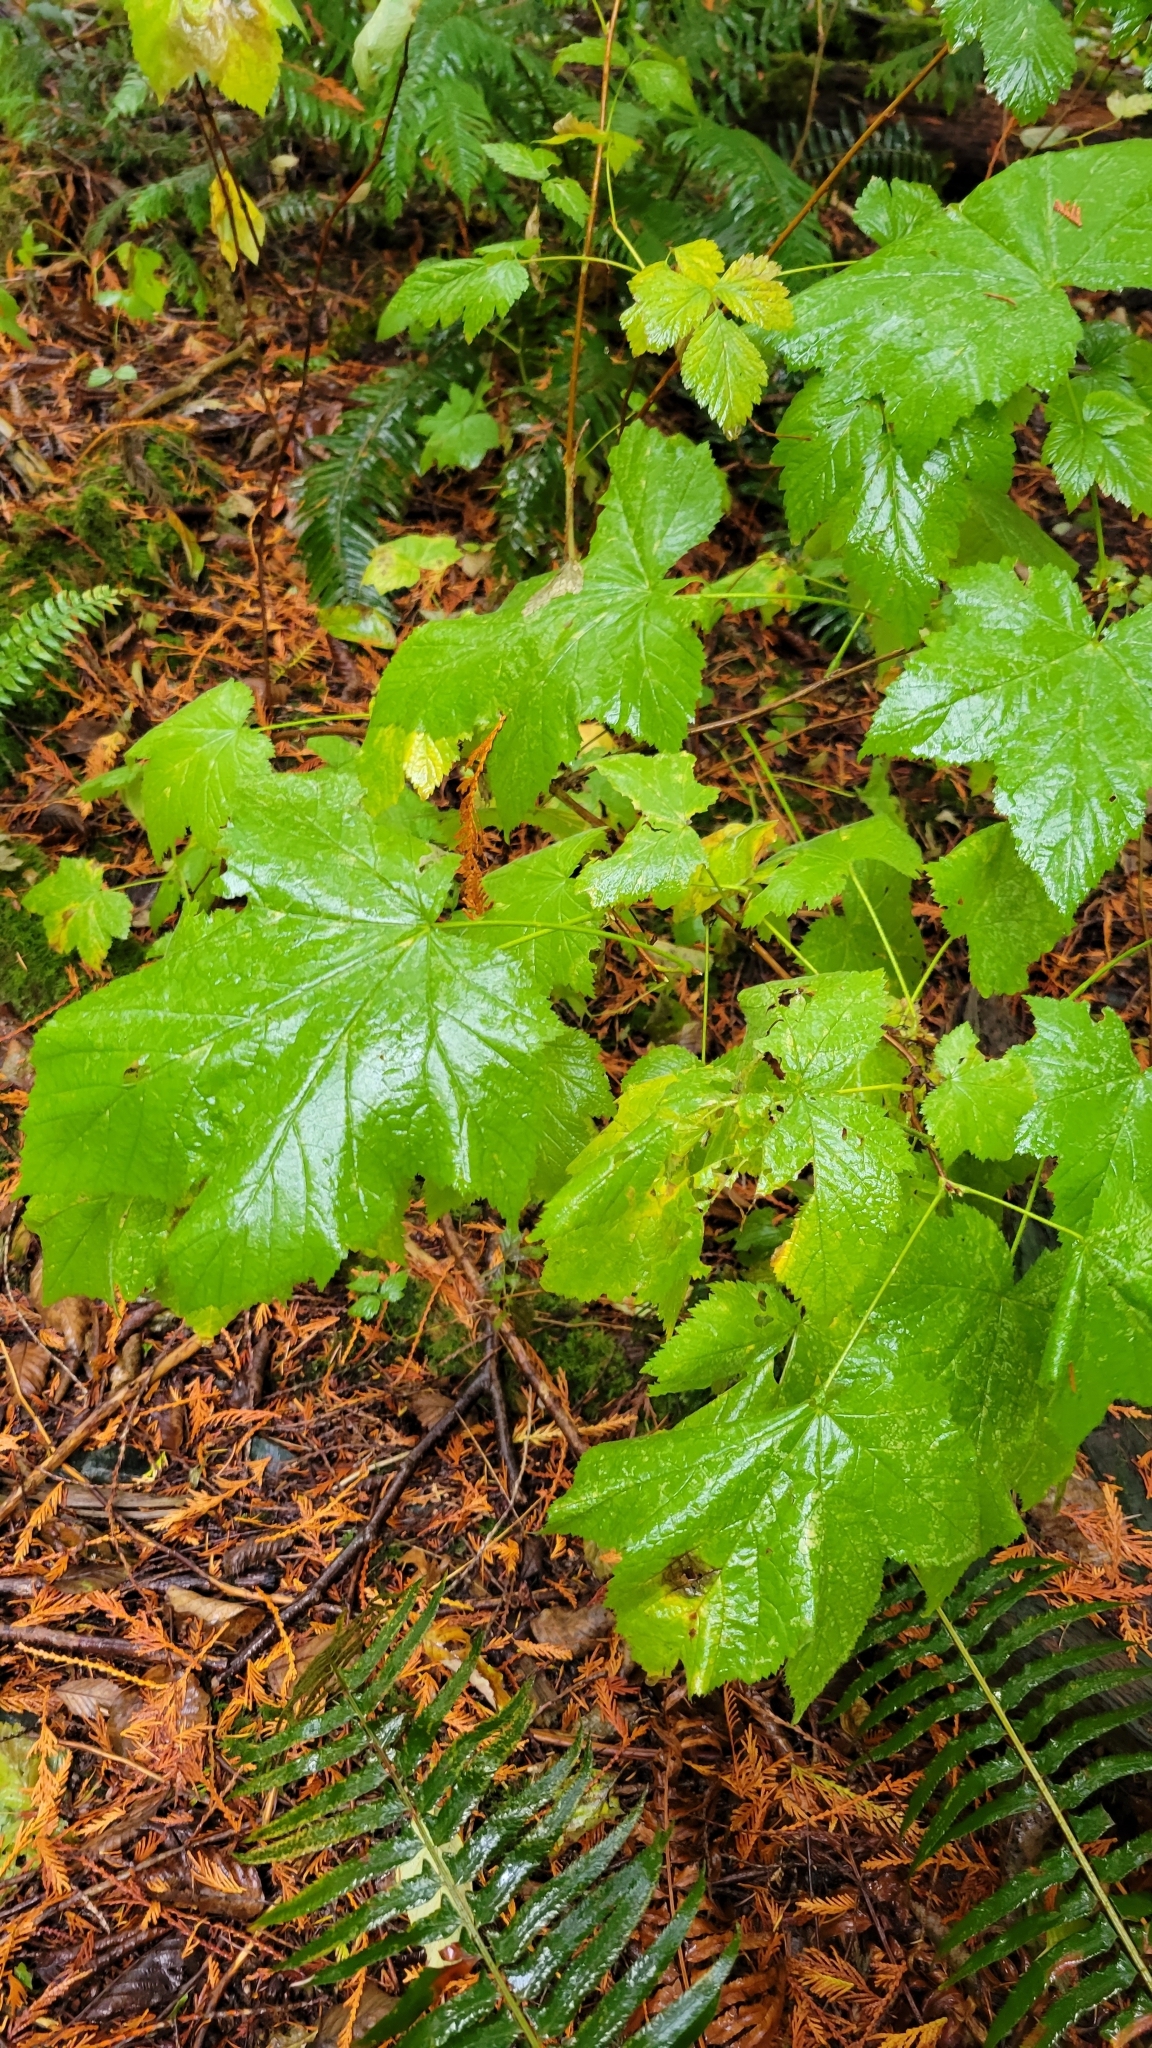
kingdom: Plantae
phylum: Tracheophyta
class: Magnoliopsida
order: Rosales
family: Rosaceae
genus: Rubus
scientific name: Rubus parviflorus
